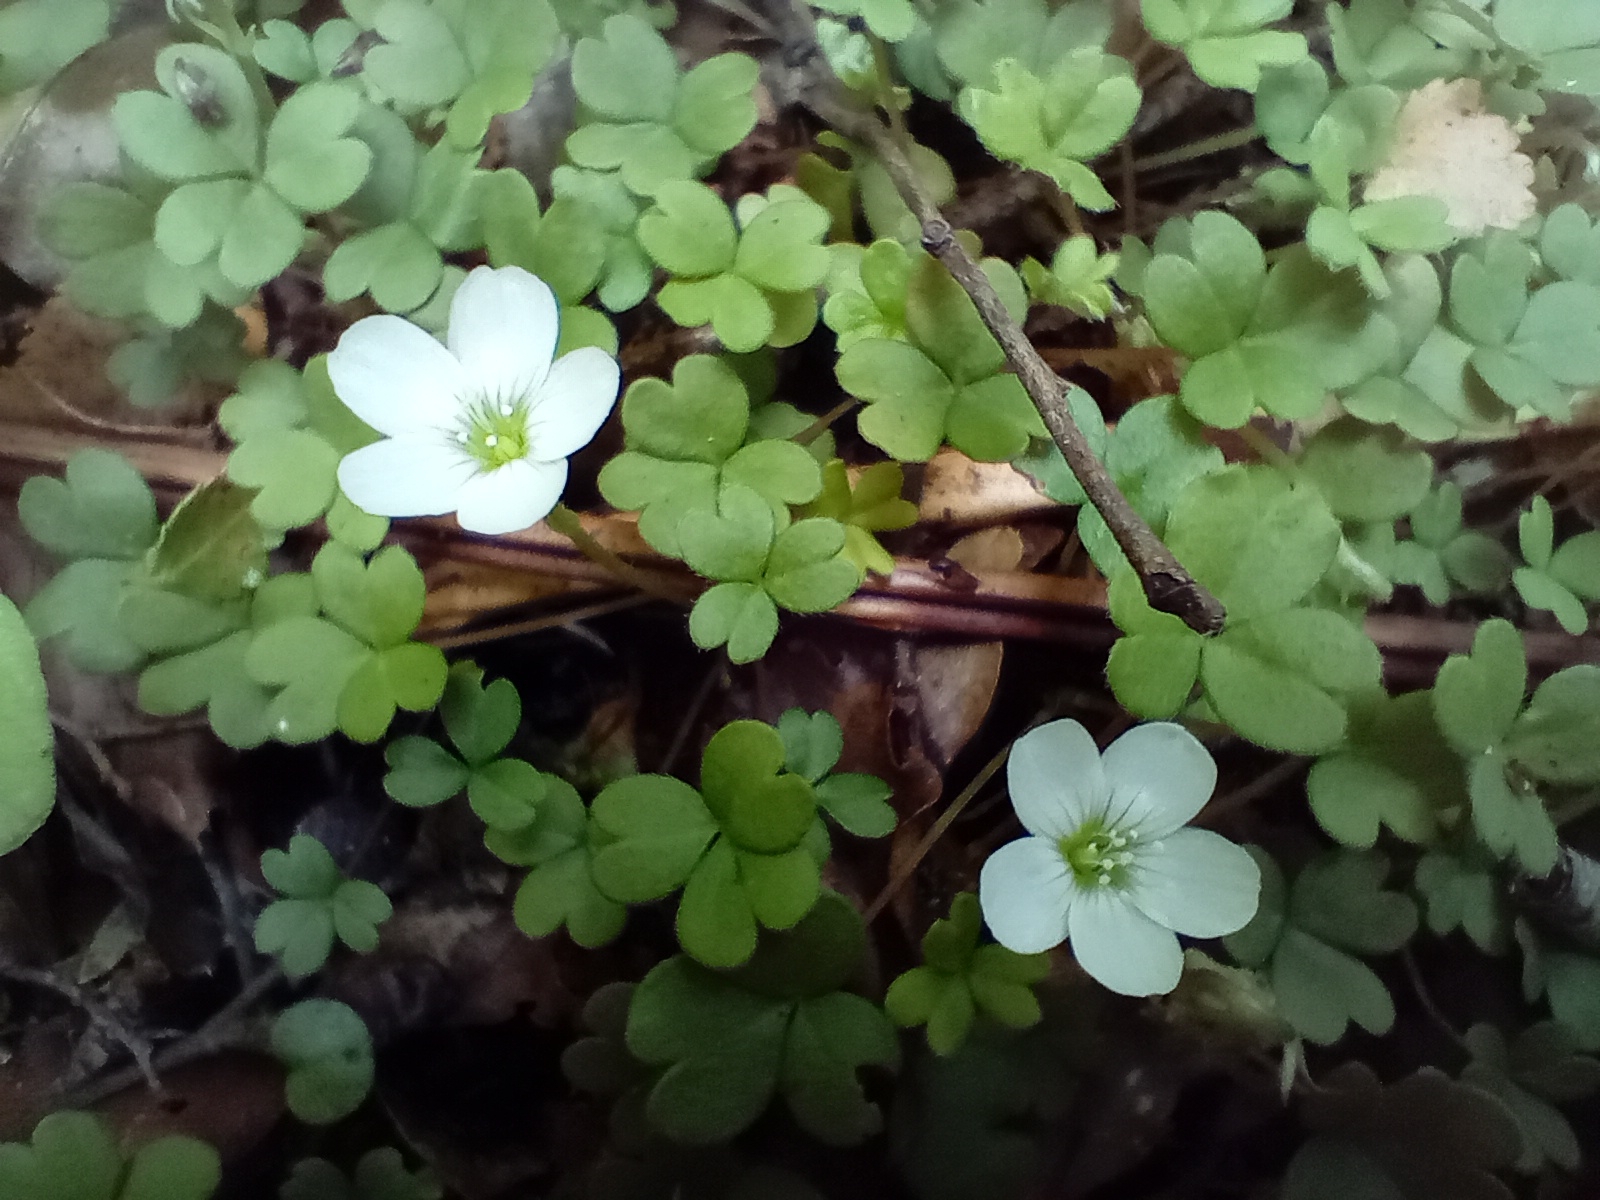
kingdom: Plantae
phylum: Tracheophyta
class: Magnoliopsida
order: Oxalidales
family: Oxalidaceae
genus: Oxalis
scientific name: Oxalis magellanica
